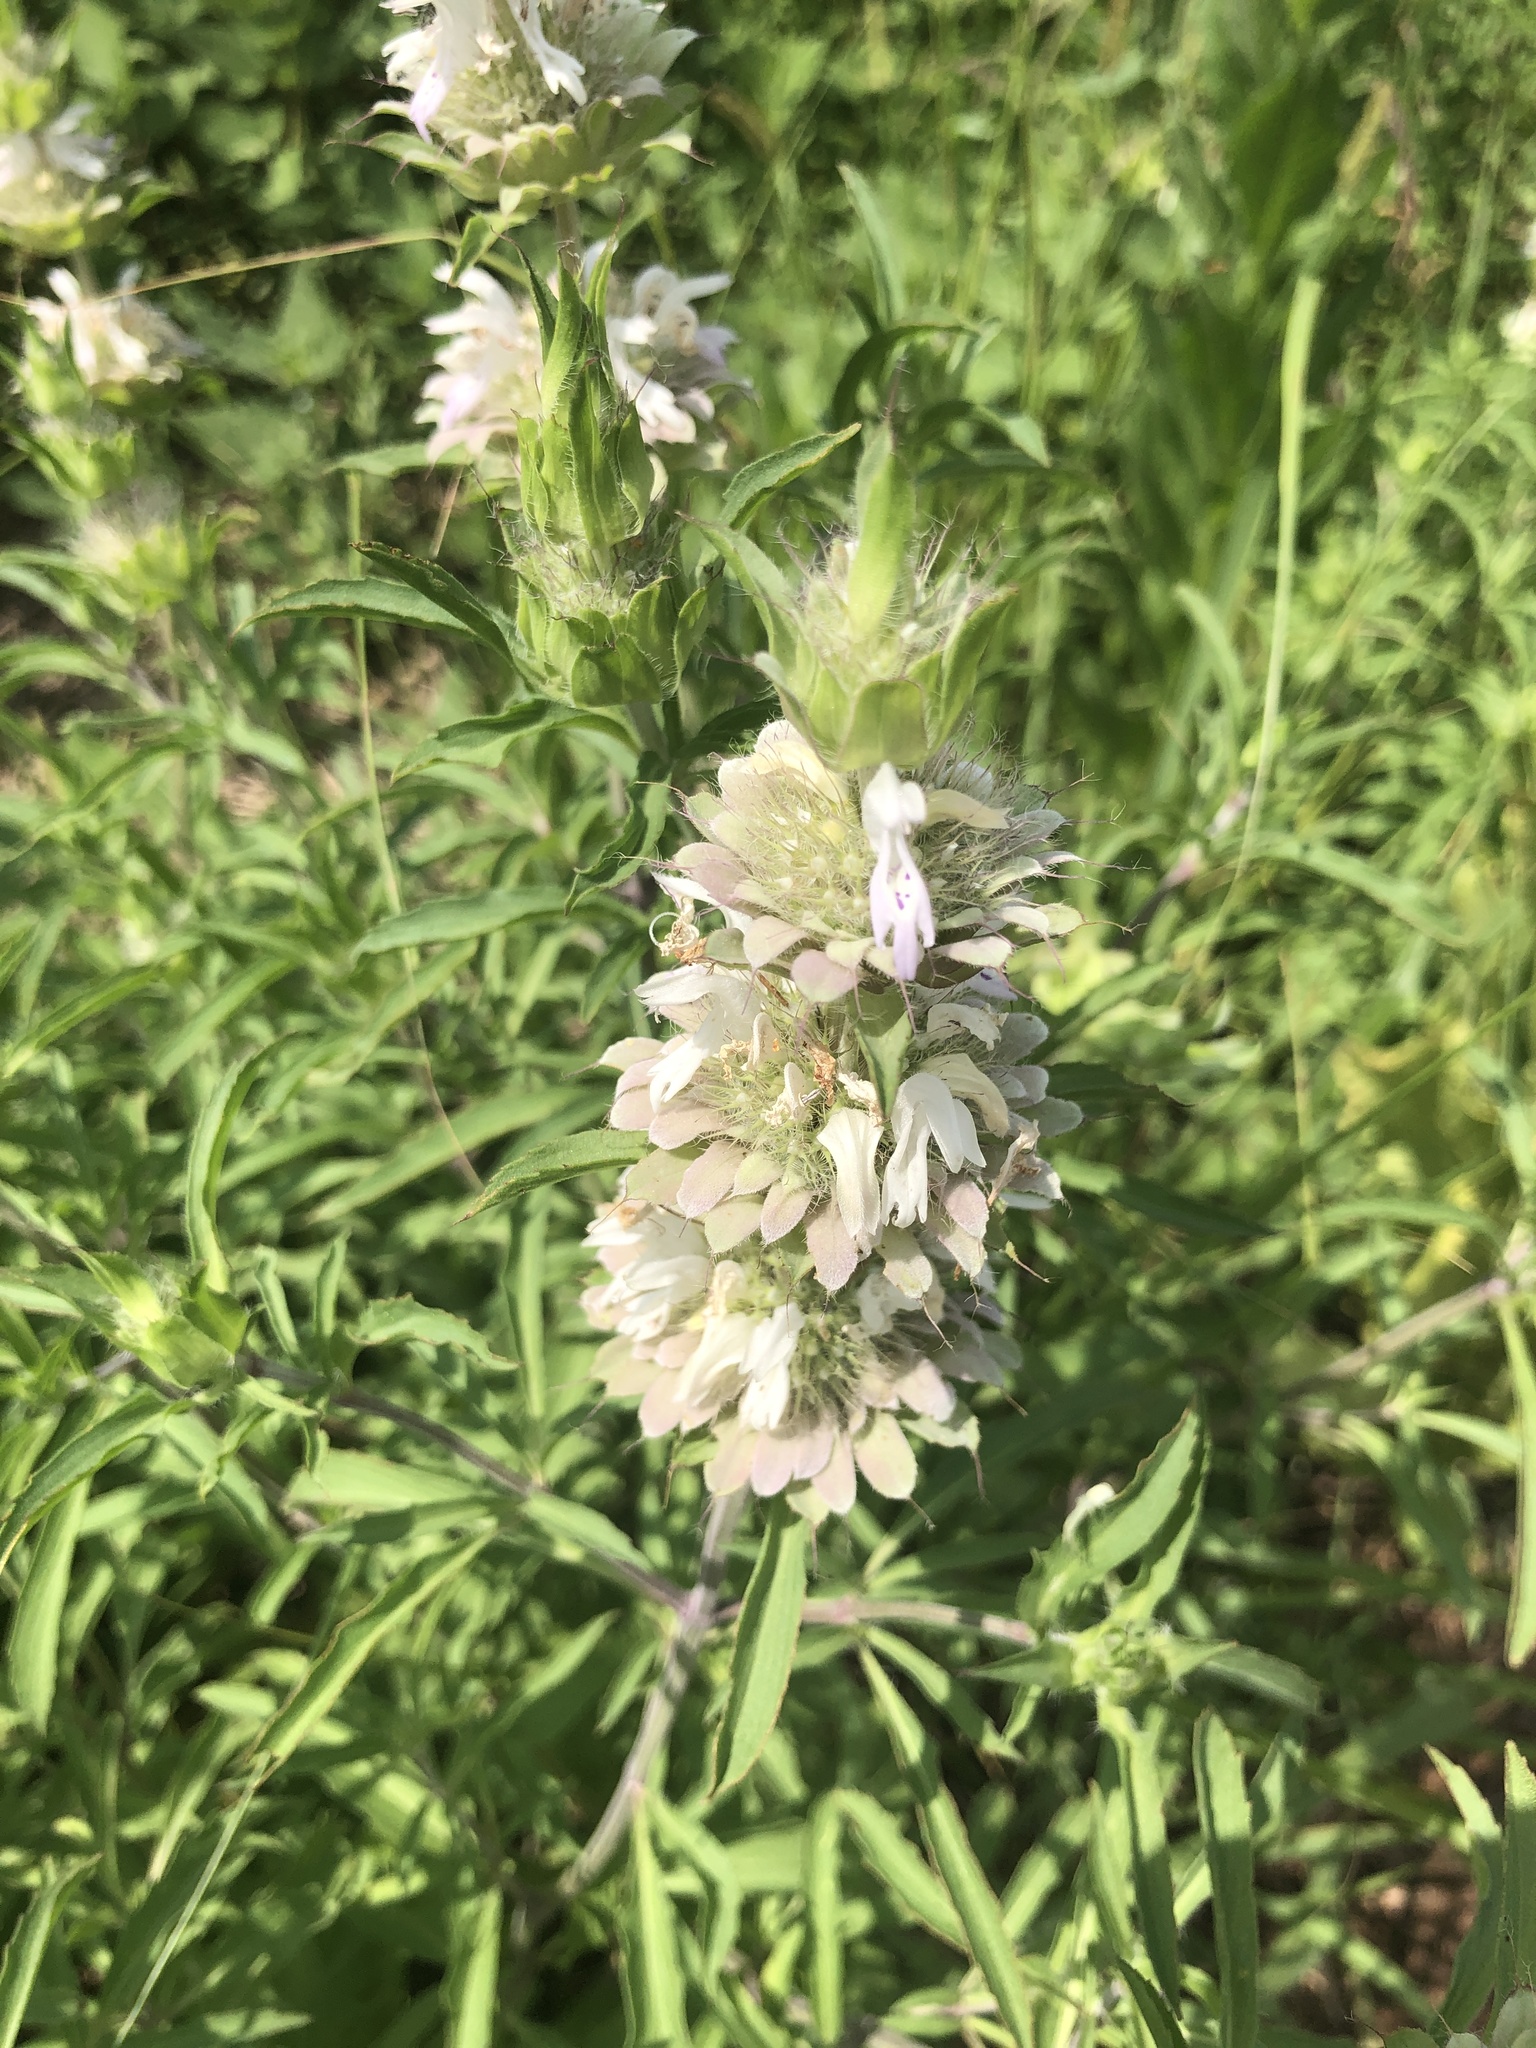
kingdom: Plantae
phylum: Tracheophyta
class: Magnoliopsida
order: Lamiales
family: Lamiaceae
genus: Monarda
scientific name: Monarda citriodora
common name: Lemon beebalm
